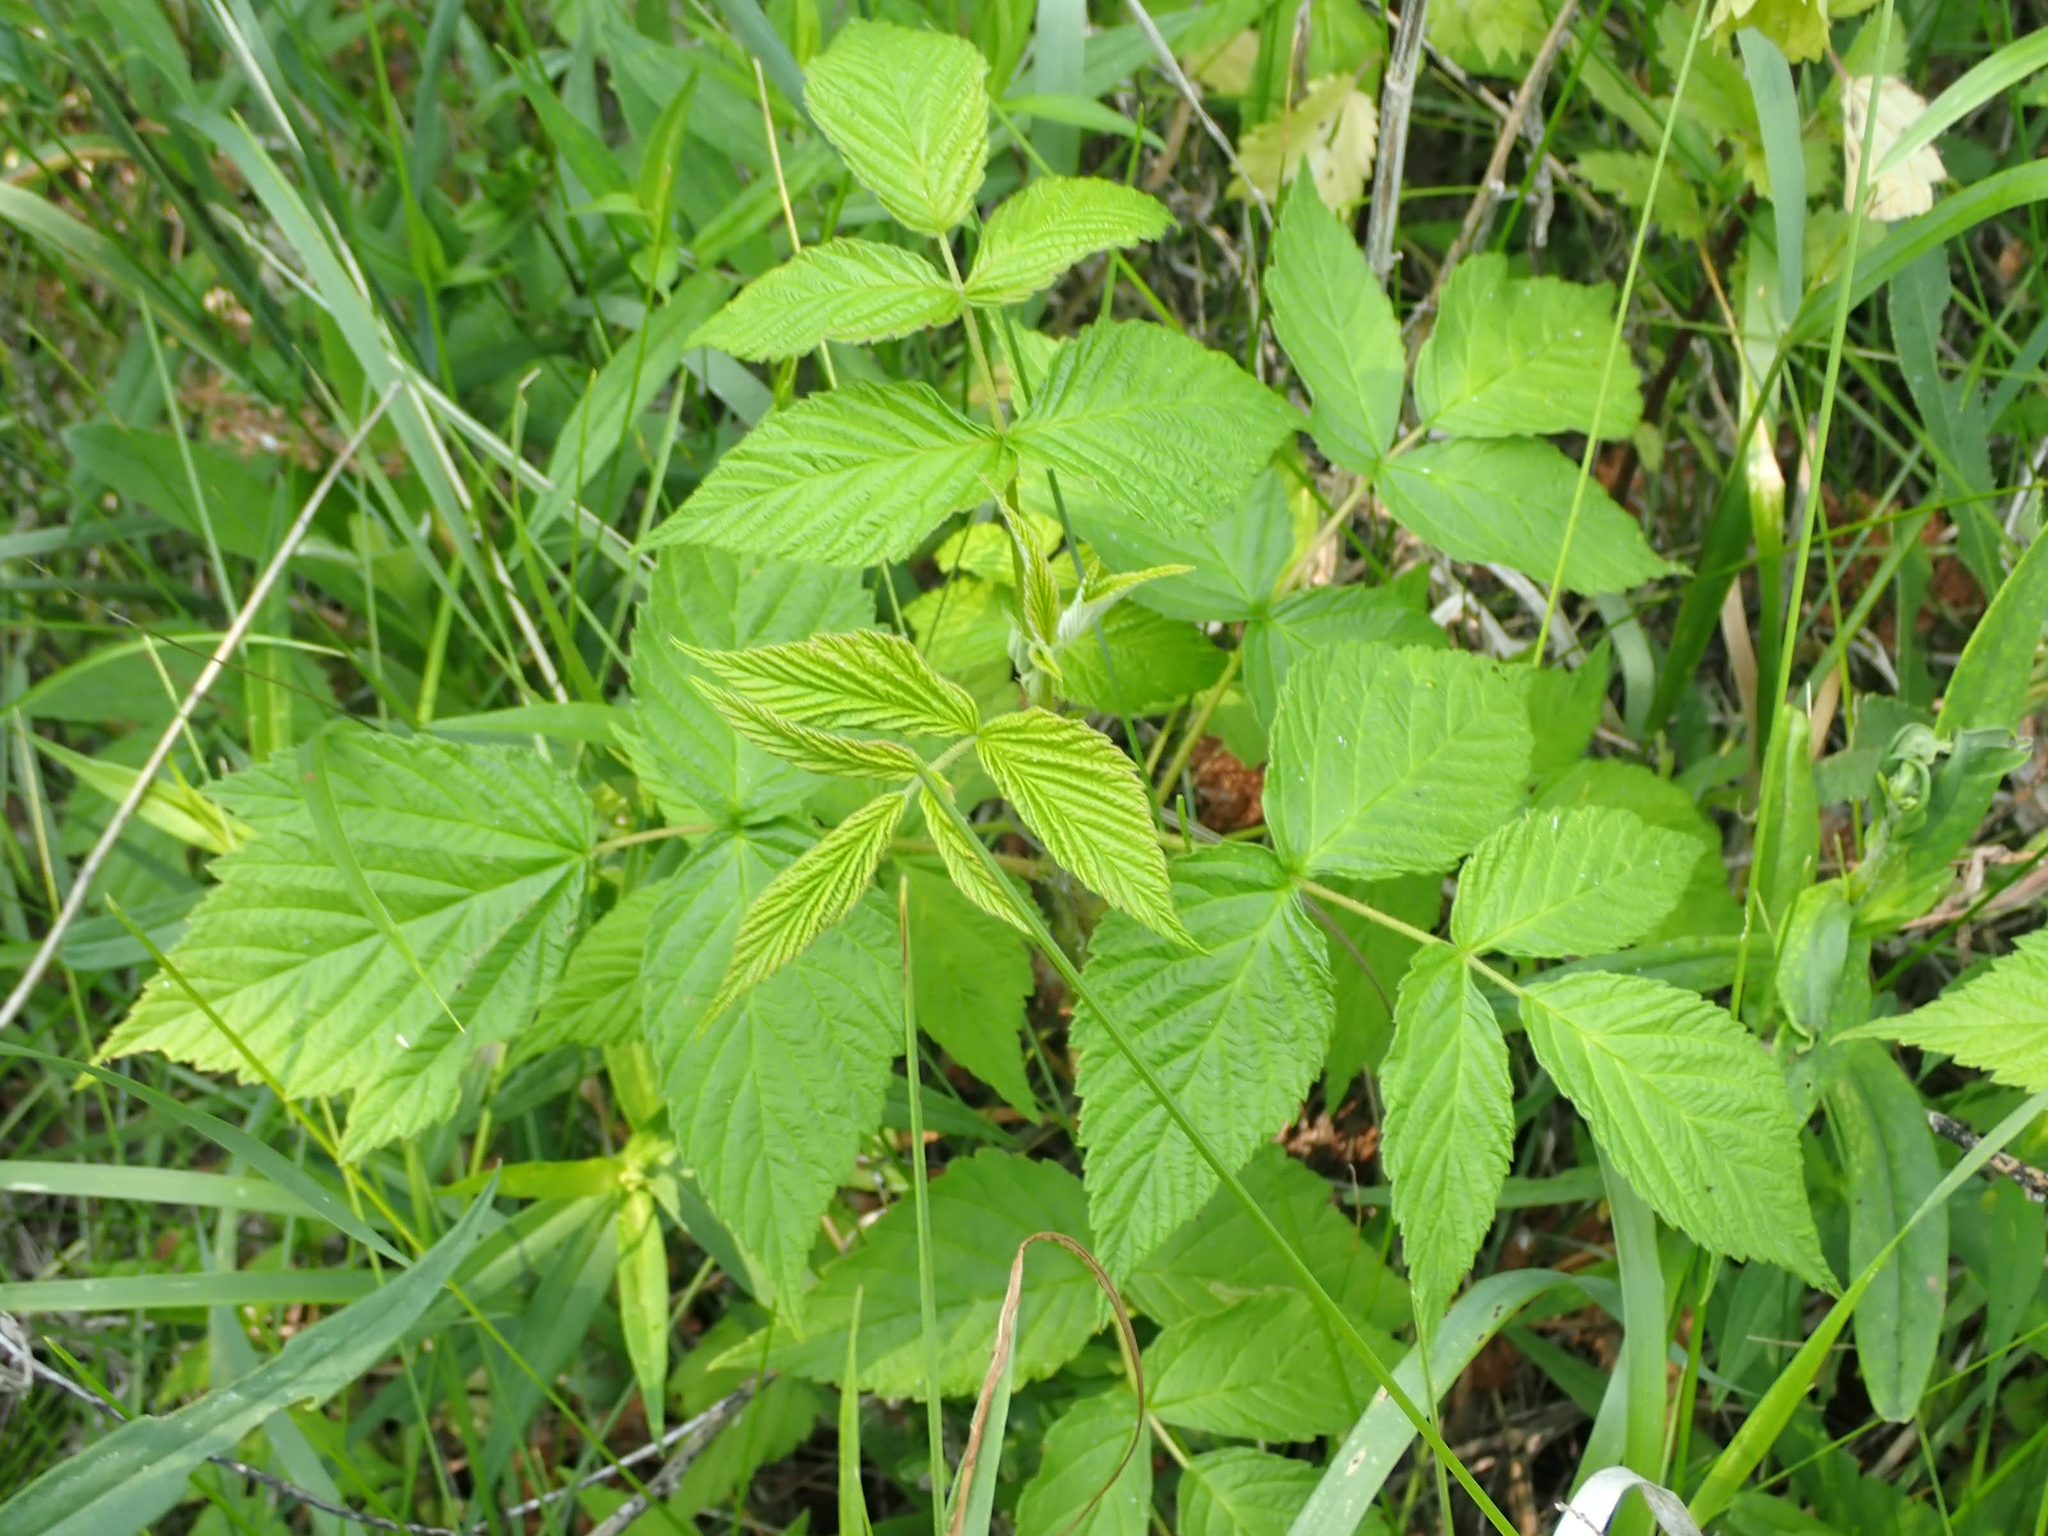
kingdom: Plantae
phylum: Tracheophyta
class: Magnoliopsida
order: Rosales
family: Rosaceae
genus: Rubus
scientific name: Rubus idaeus
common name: Raspberry
